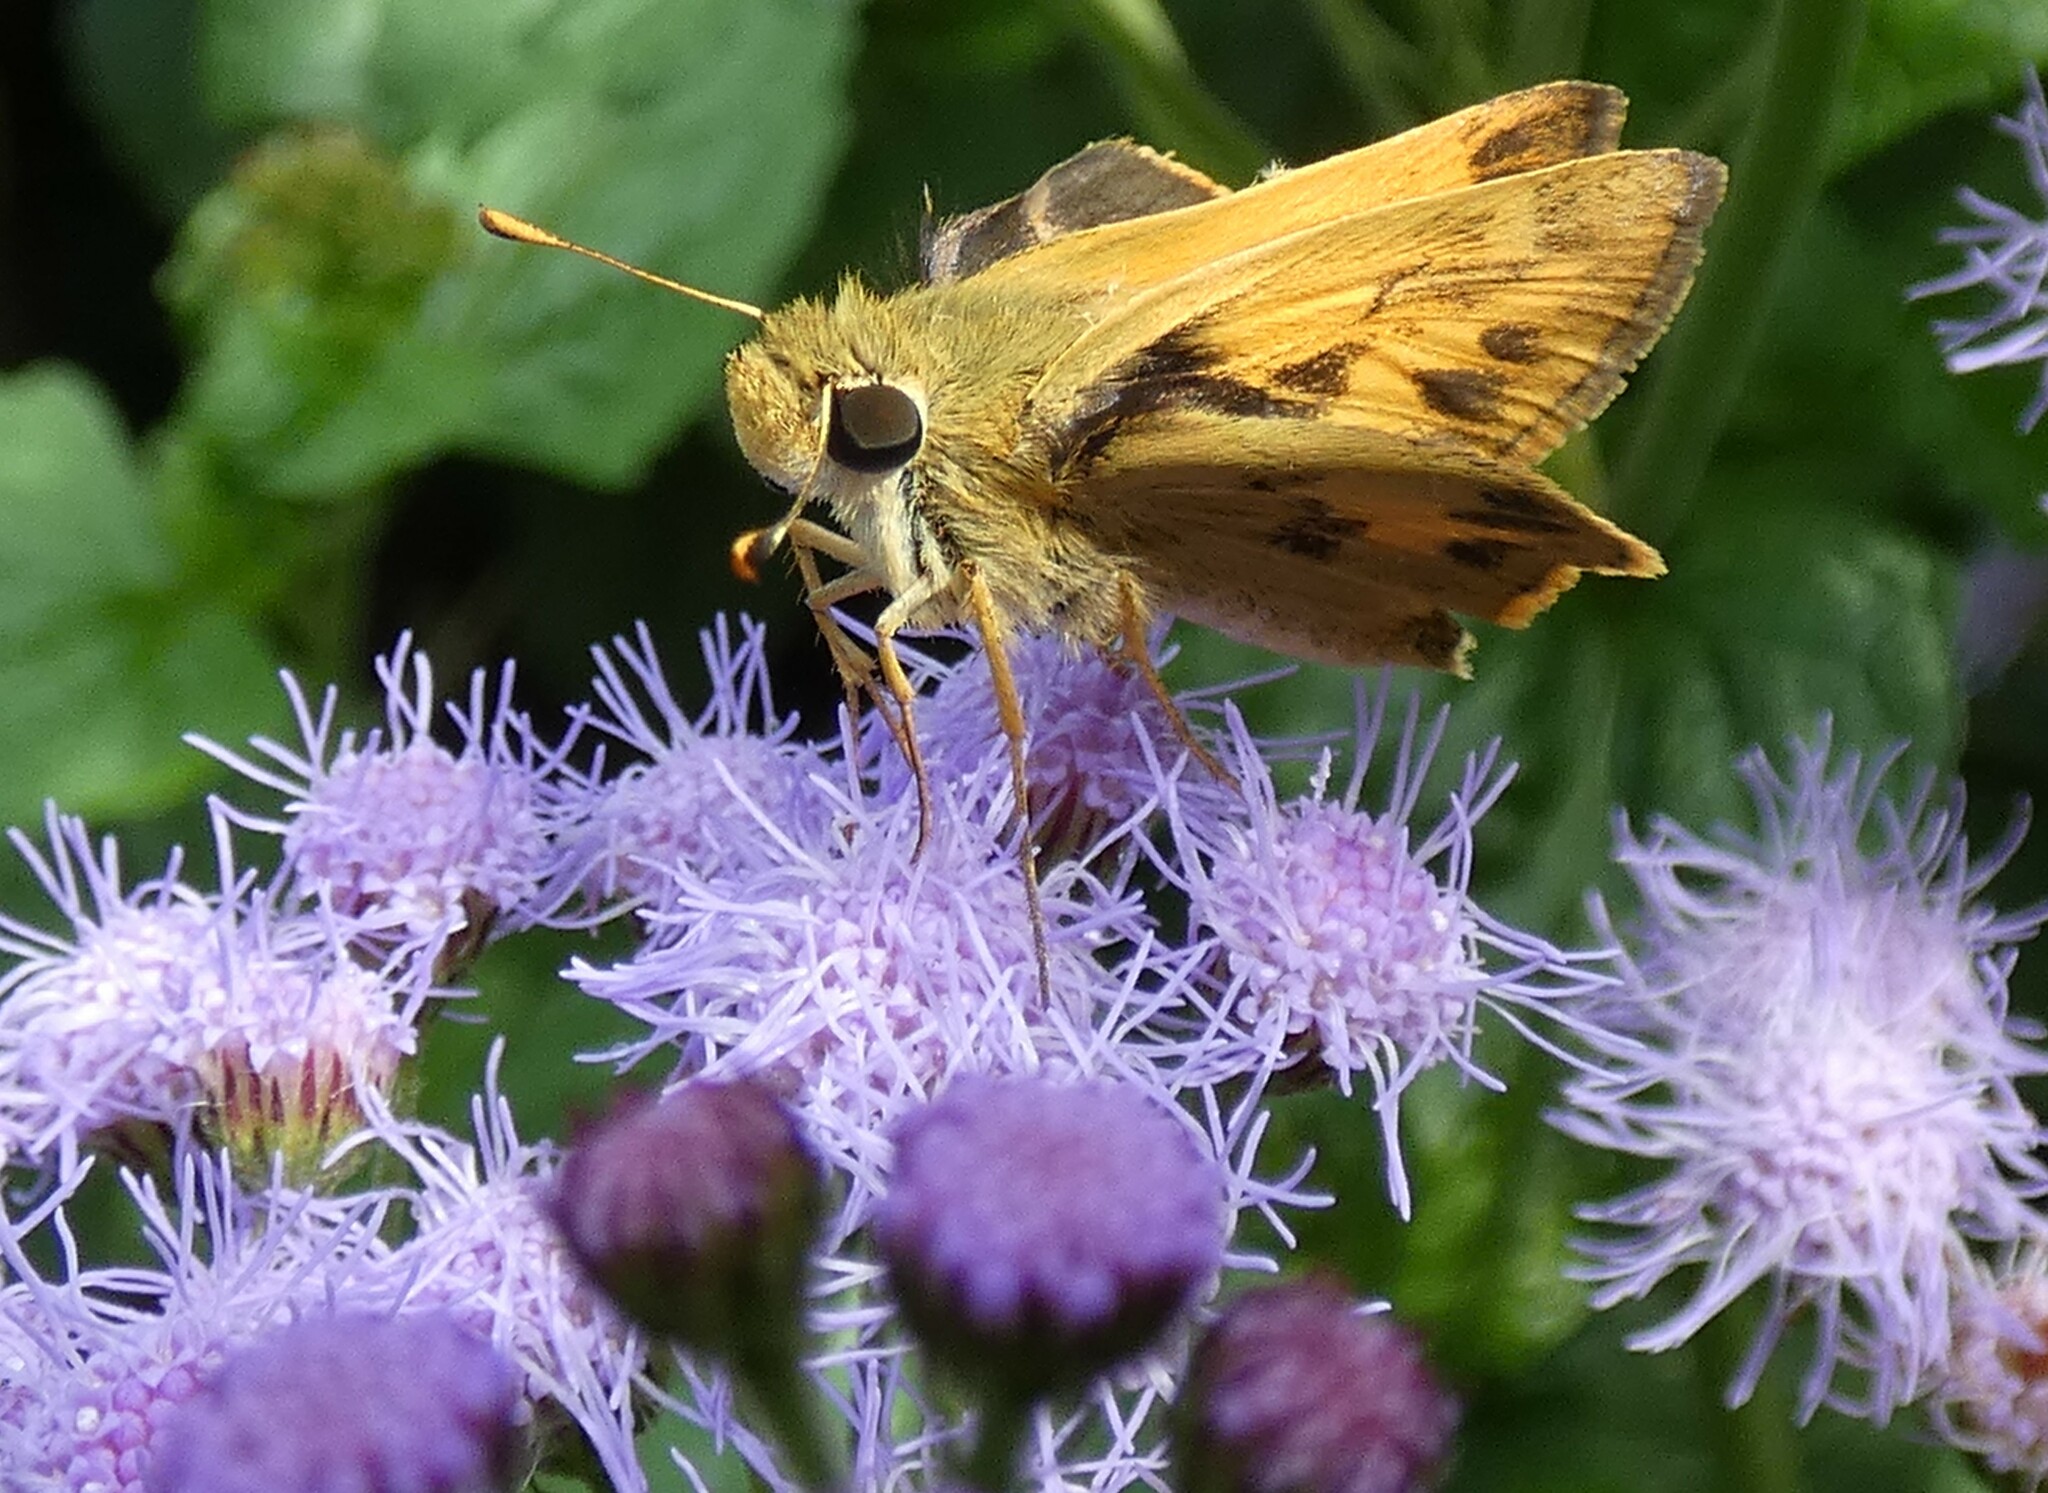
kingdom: Animalia
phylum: Arthropoda
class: Insecta
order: Lepidoptera
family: Hesperiidae
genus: Polites
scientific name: Polites vibex
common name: Whirlabout
